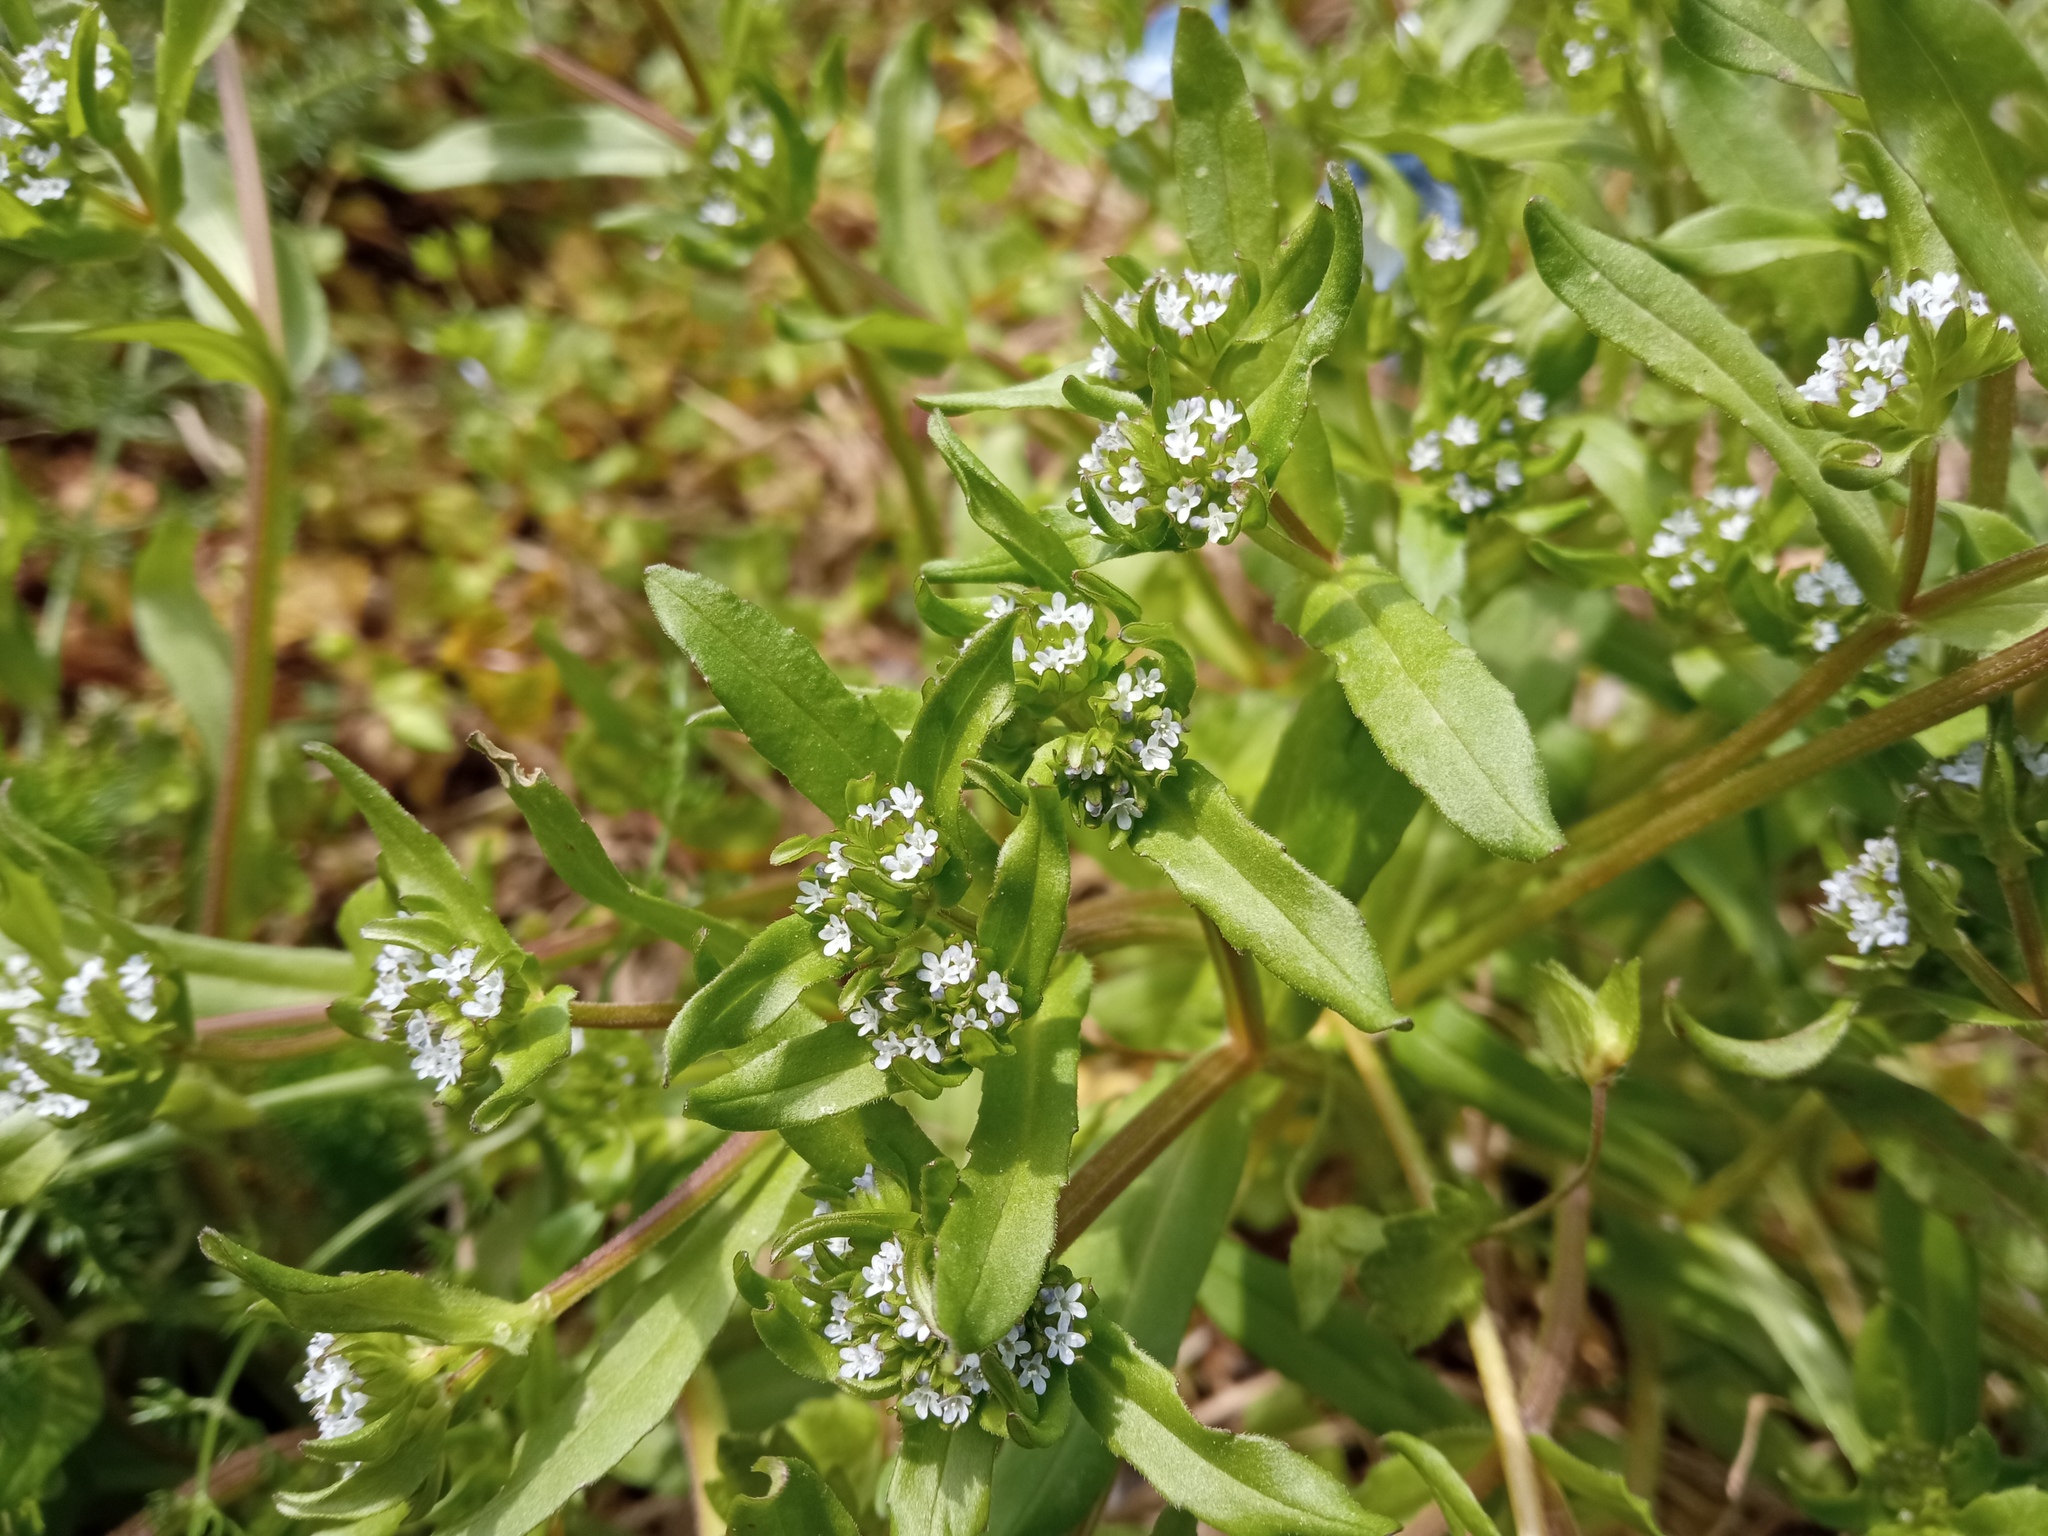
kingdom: Plantae
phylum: Tracheophyta
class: Magnoliopsida
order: Dipsacales
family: Caprifoliaceae
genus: Valerianella
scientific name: Valerianella locusta
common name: Common cornsalad
